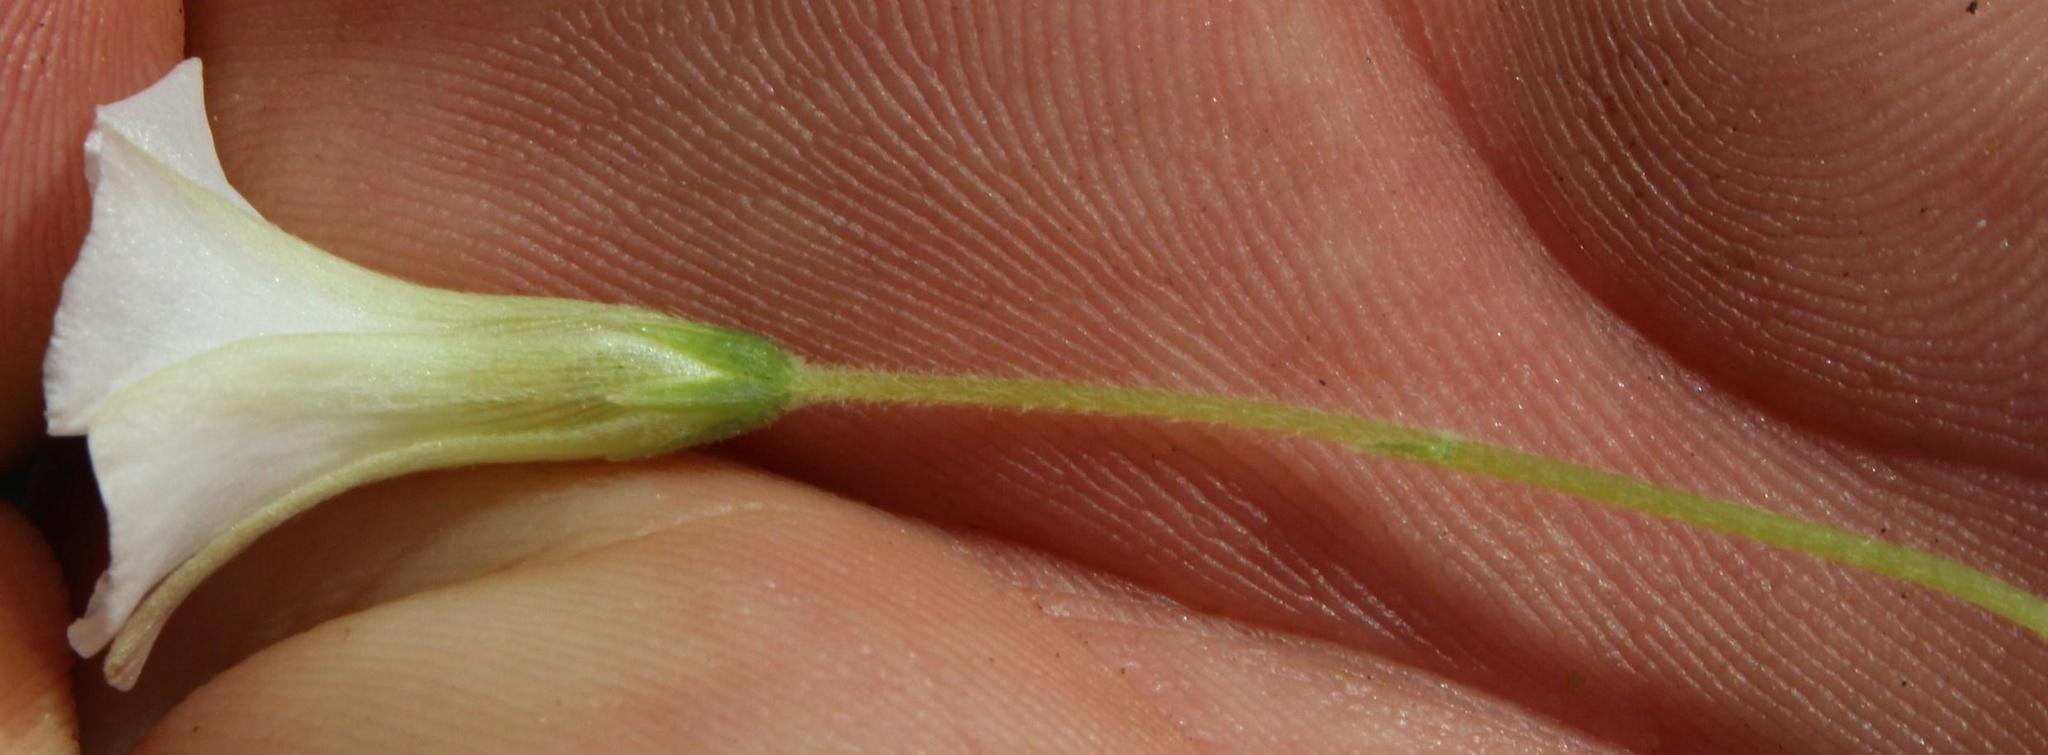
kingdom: Plantae
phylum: Tracheophyta
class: Magnoliopsida
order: Oxalidales
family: Oxalidaceae
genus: Oxalis
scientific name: Oxalis lanata
